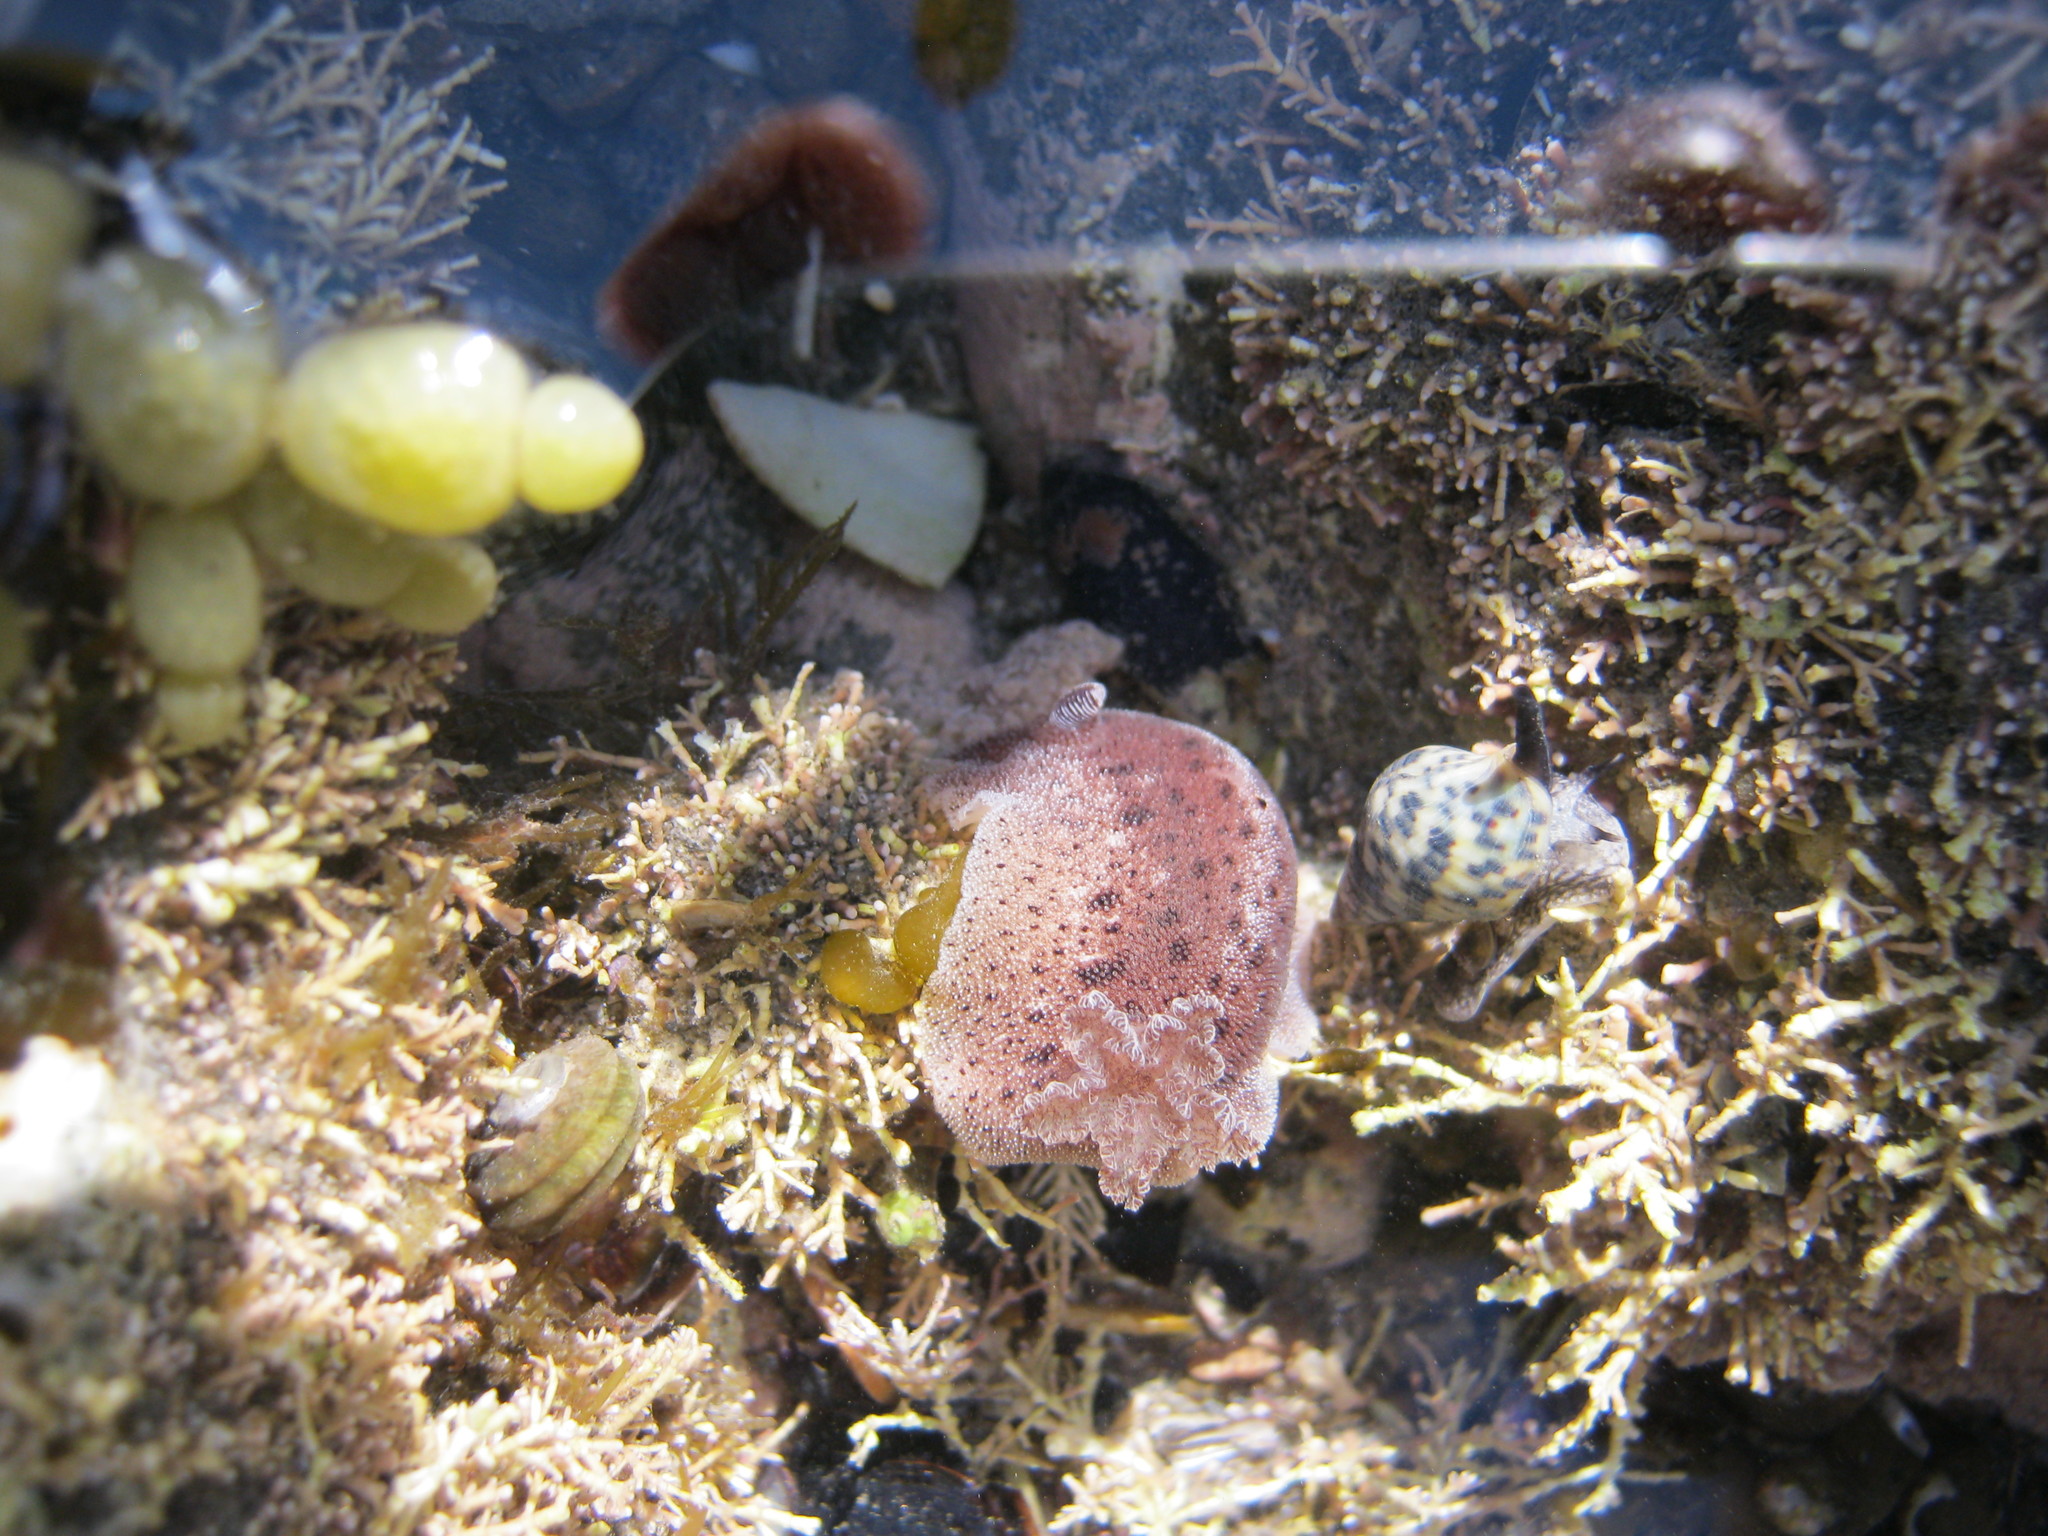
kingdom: Animalia
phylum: Mollusca
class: Gastropoda
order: Nudibranchia
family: Discodorididae
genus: Alloiodoris
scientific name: Alloiodoris lanuginata
